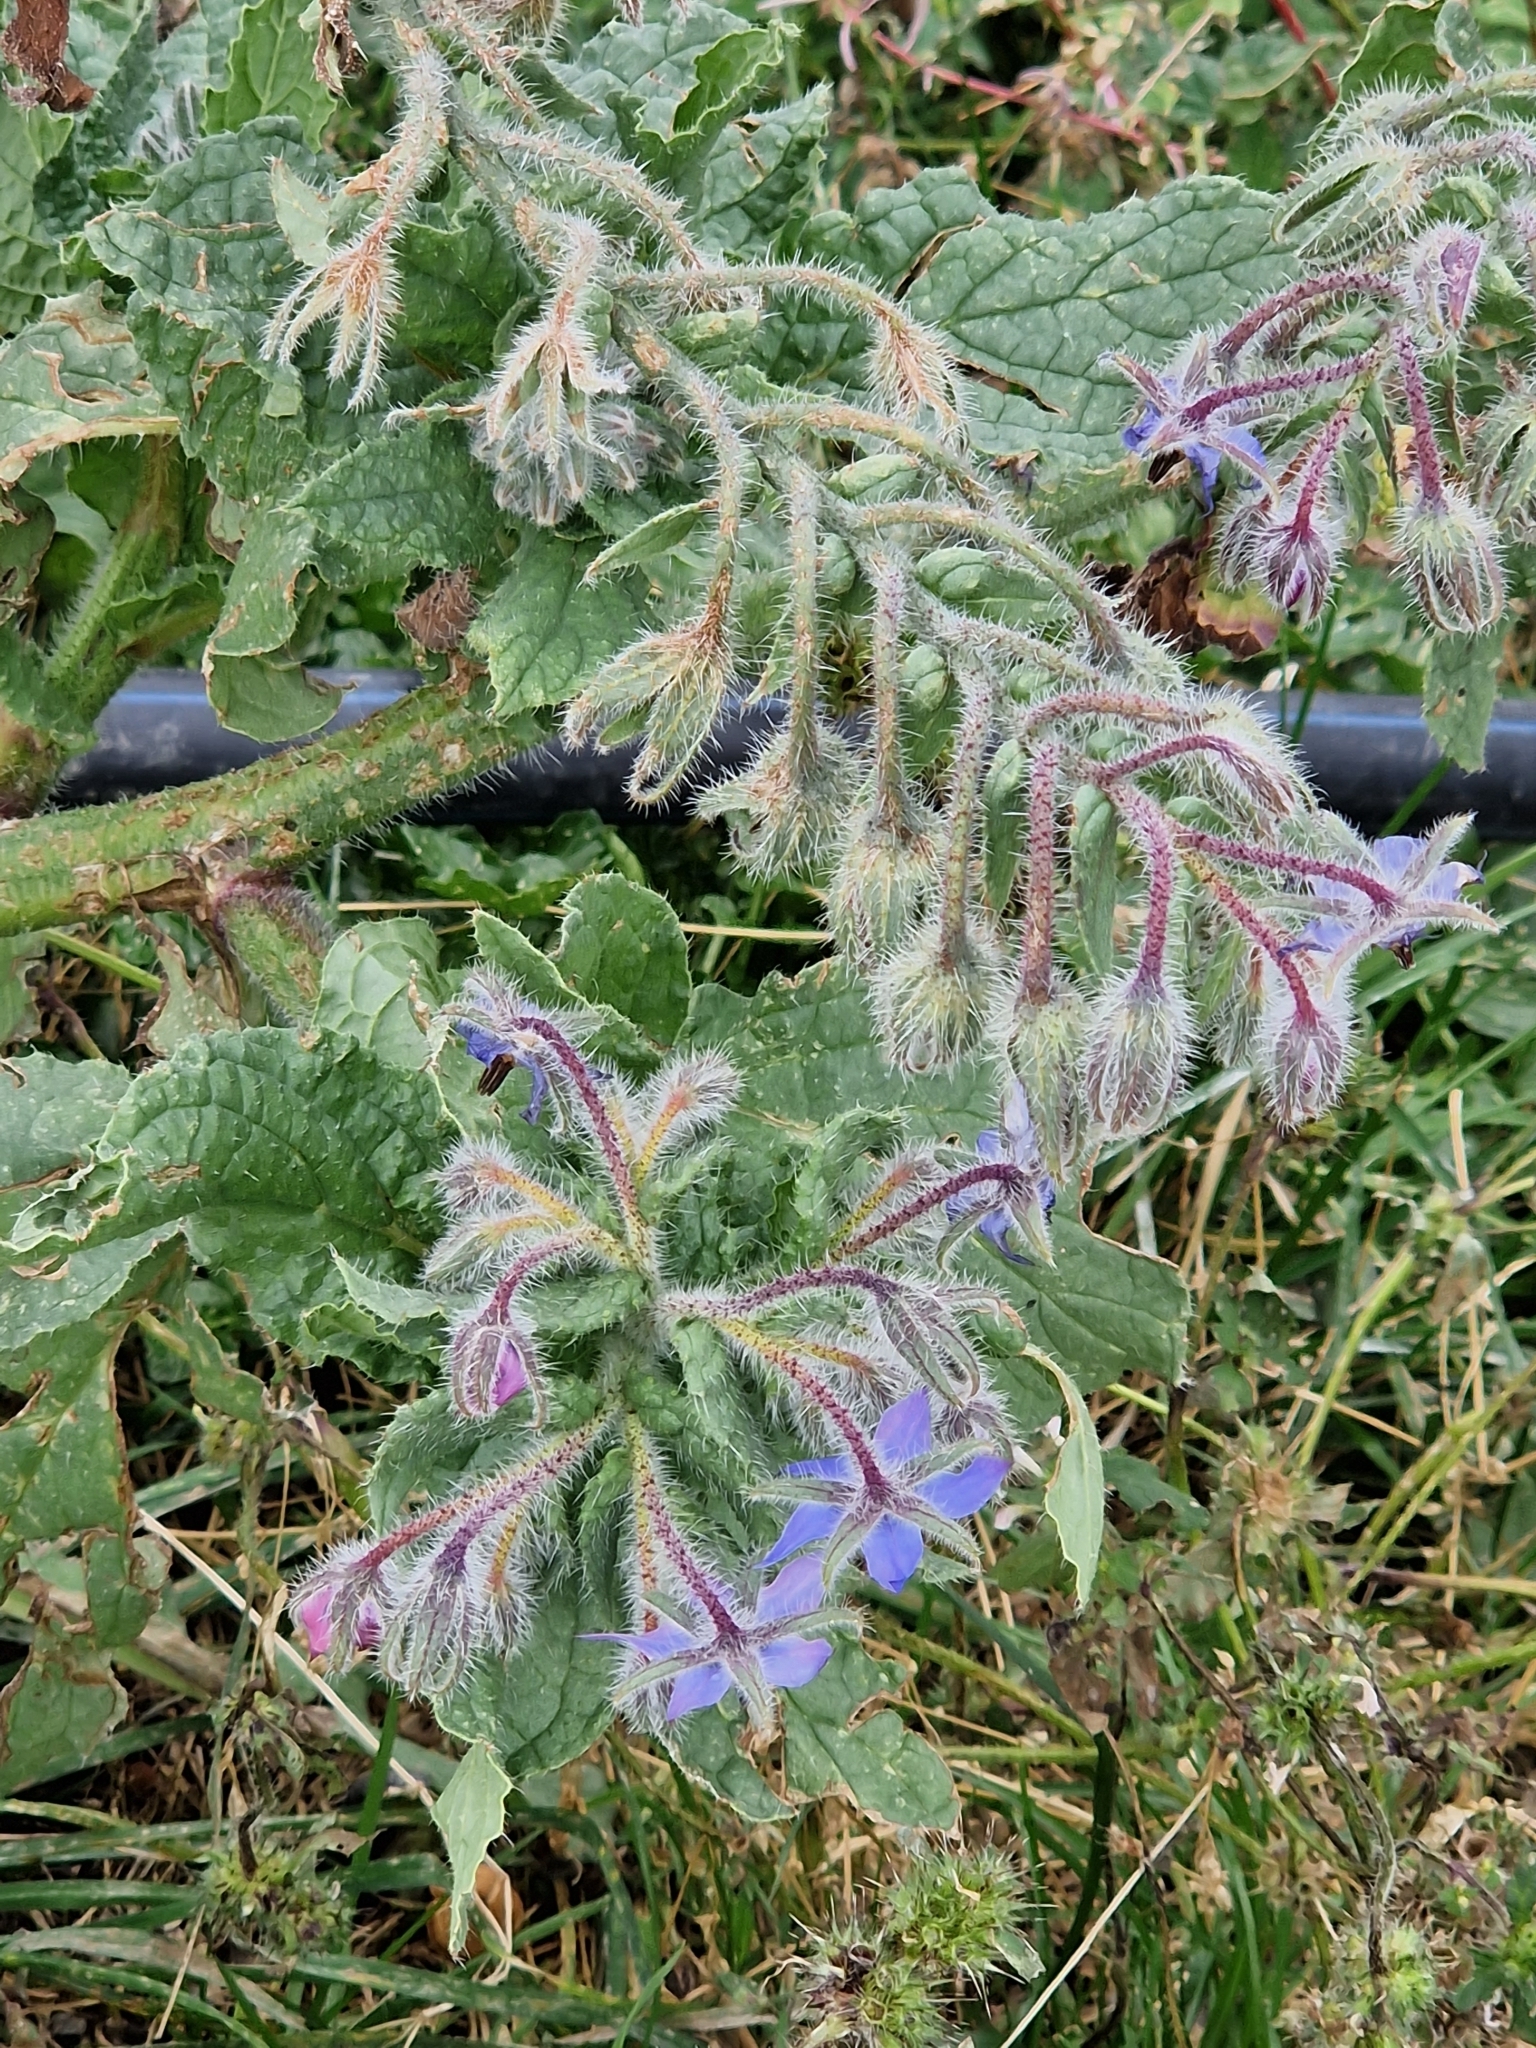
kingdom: Plantae
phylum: Tracheophyta
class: Magnoliopsida
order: Boraginales
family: Boraginaceae
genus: Borago
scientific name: Borago officinalis
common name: Borage
